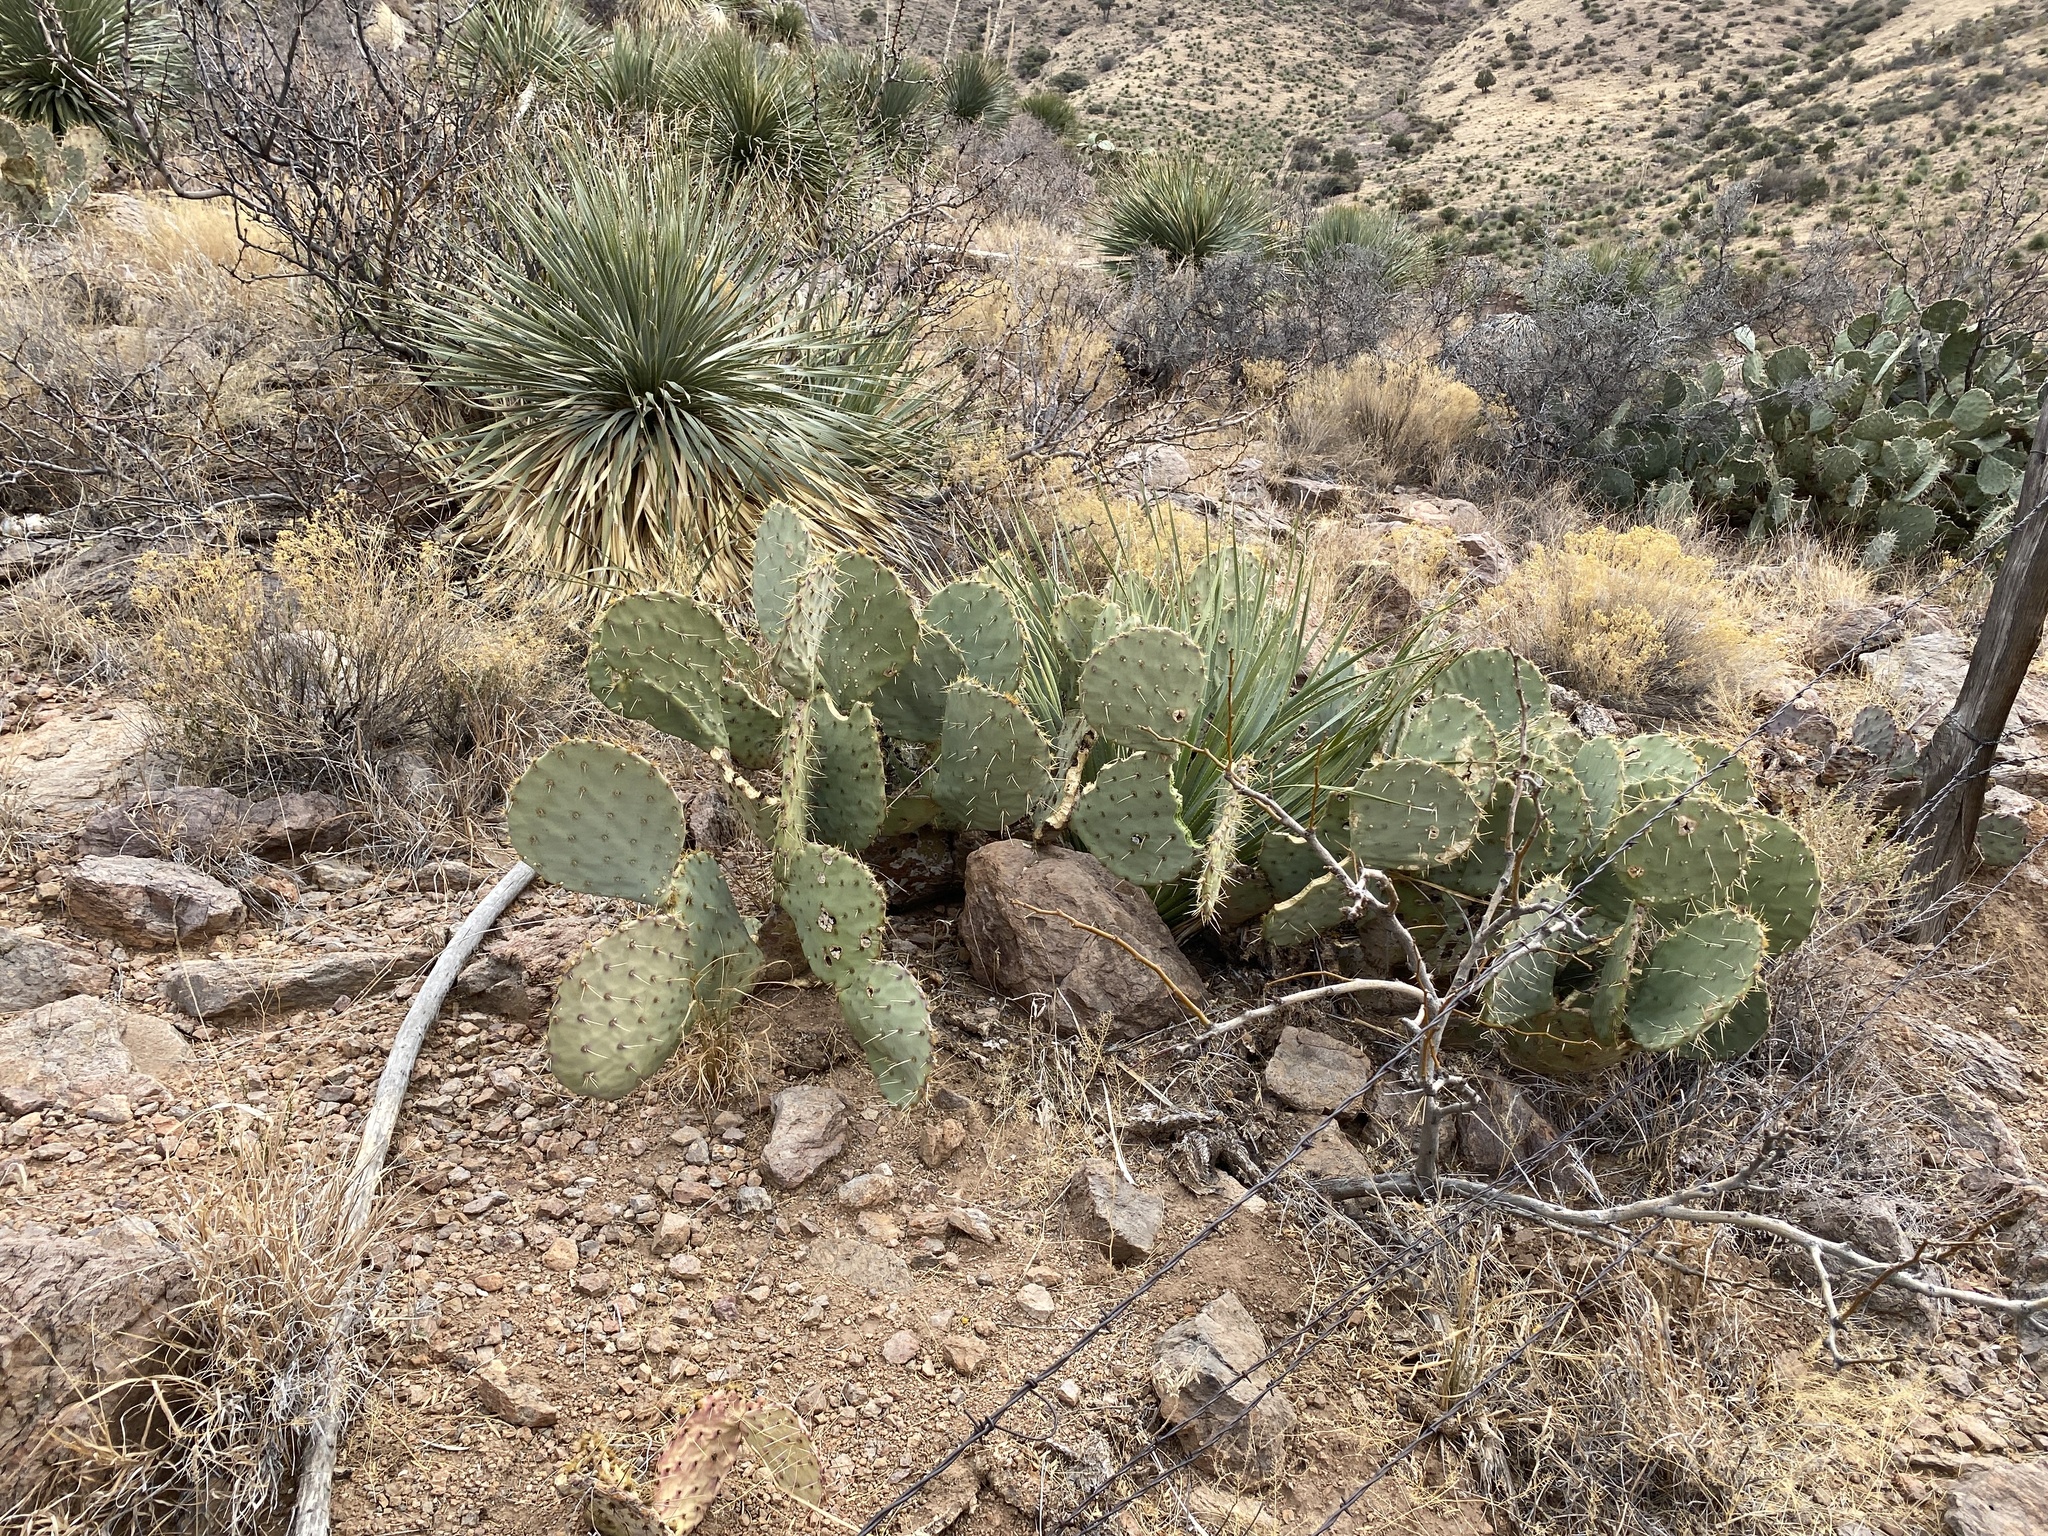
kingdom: Plantae
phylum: Tracheophyta
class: Magnoliopsida
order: Caryophyllales
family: Cactaceae
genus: Opuntia
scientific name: Opuntia engelmannii
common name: Cactus-apple
